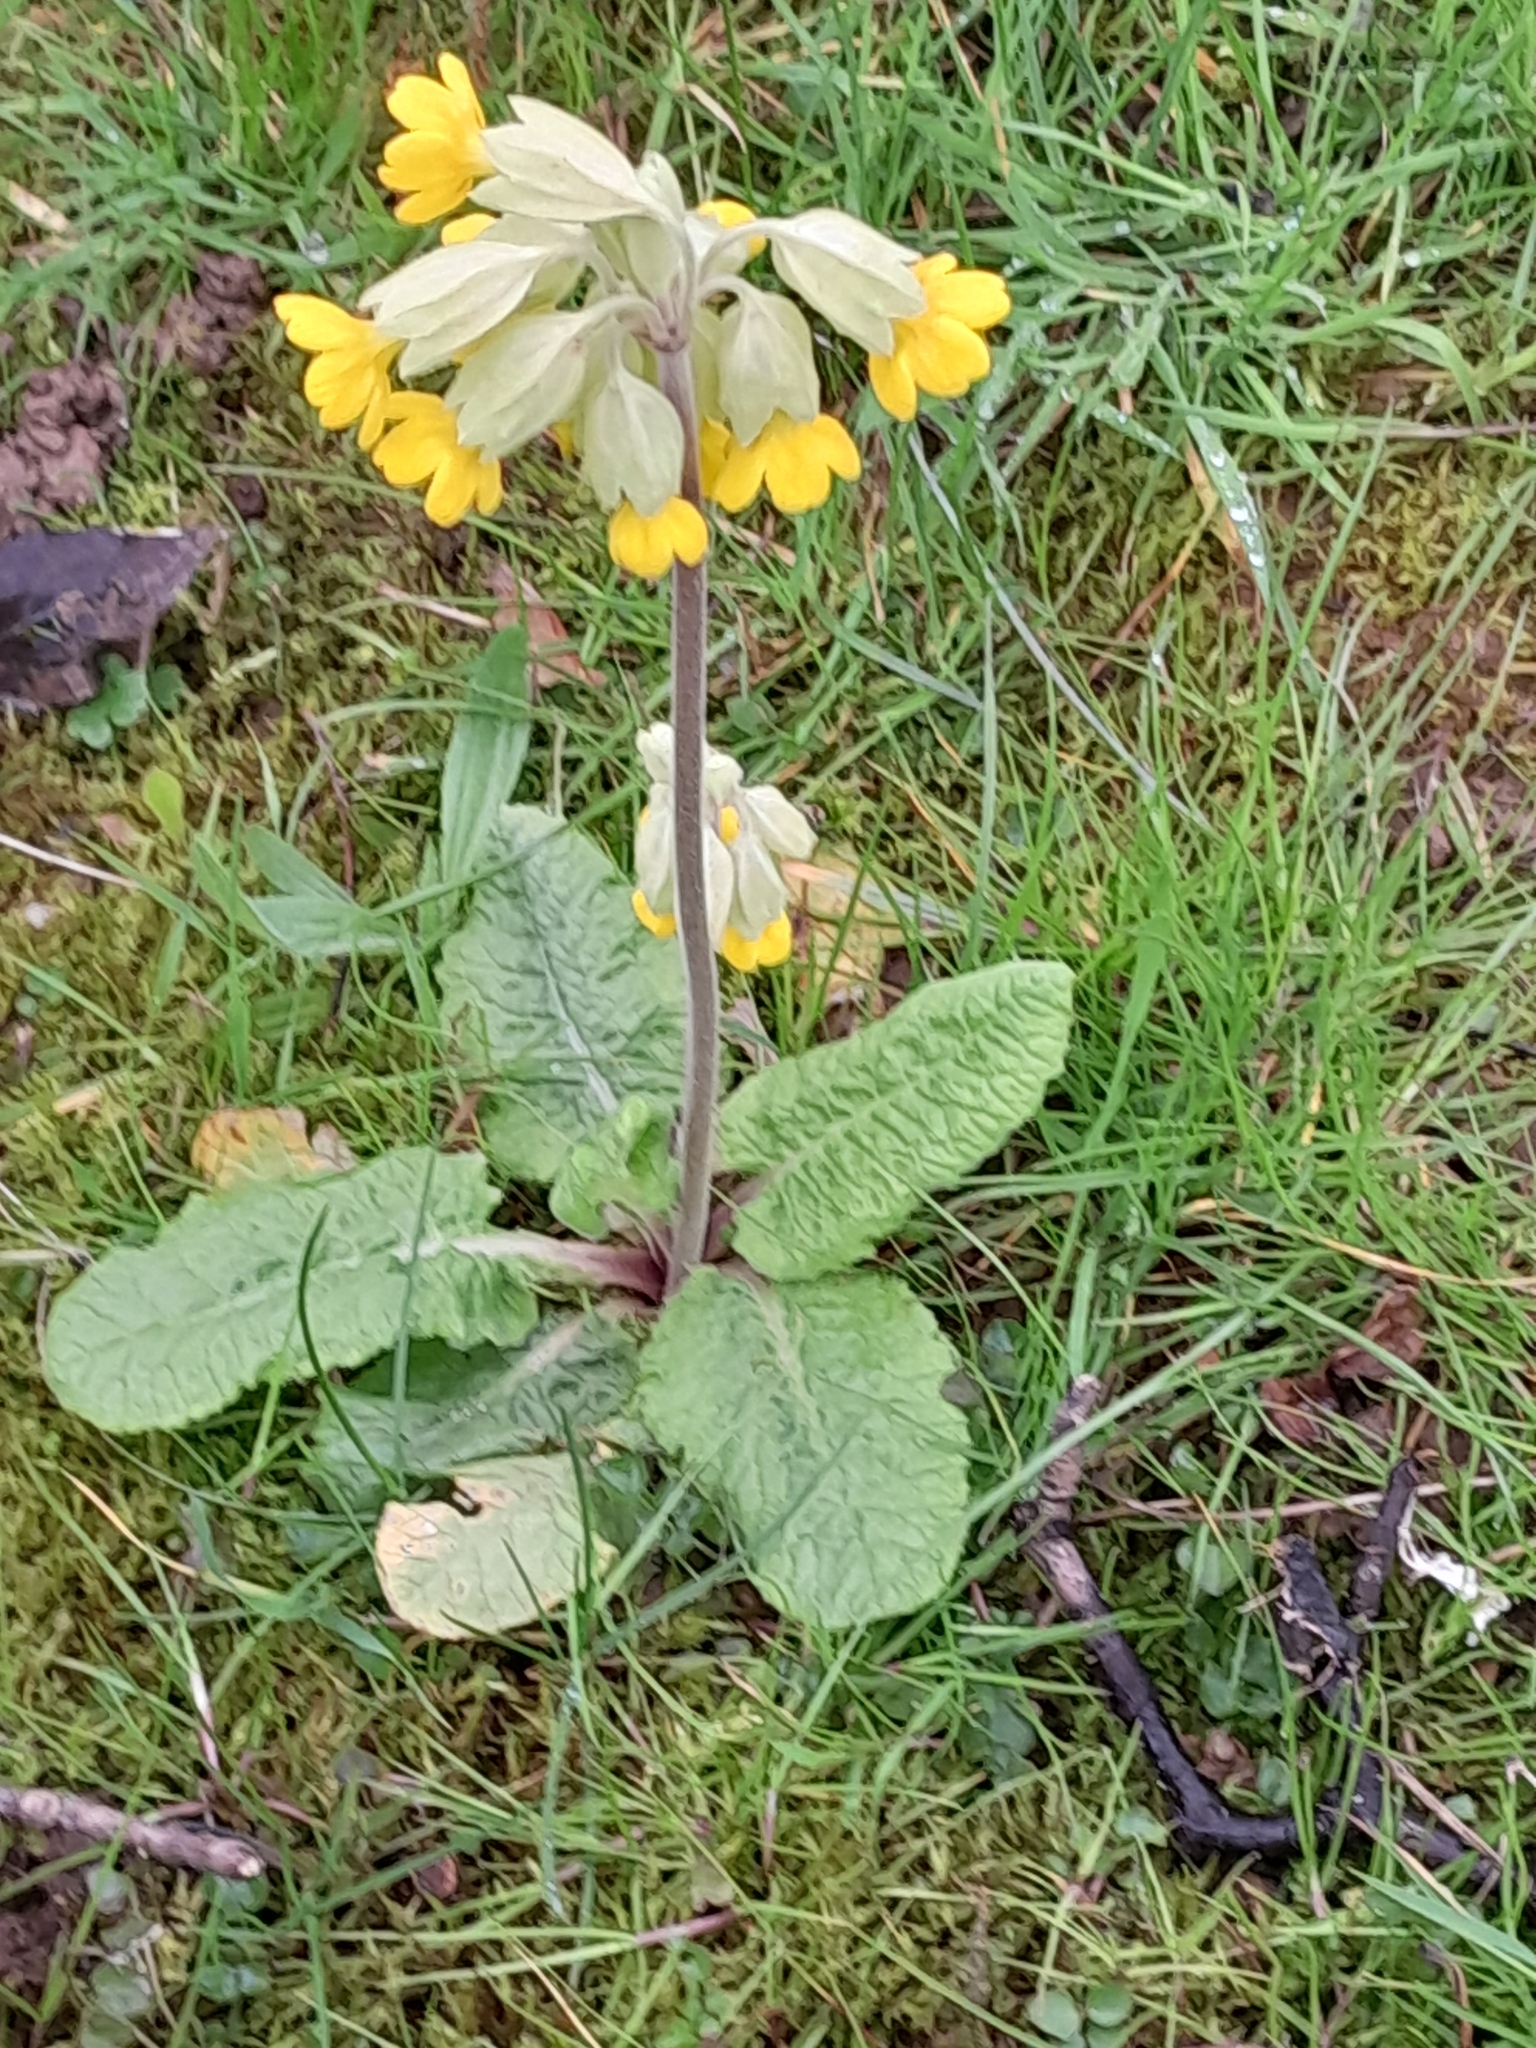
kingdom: Plantae
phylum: Tracheophyta
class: Magnoliopsida
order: Ericales
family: Primulaceae
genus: Primula
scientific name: Primula veris
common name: Cowslip
